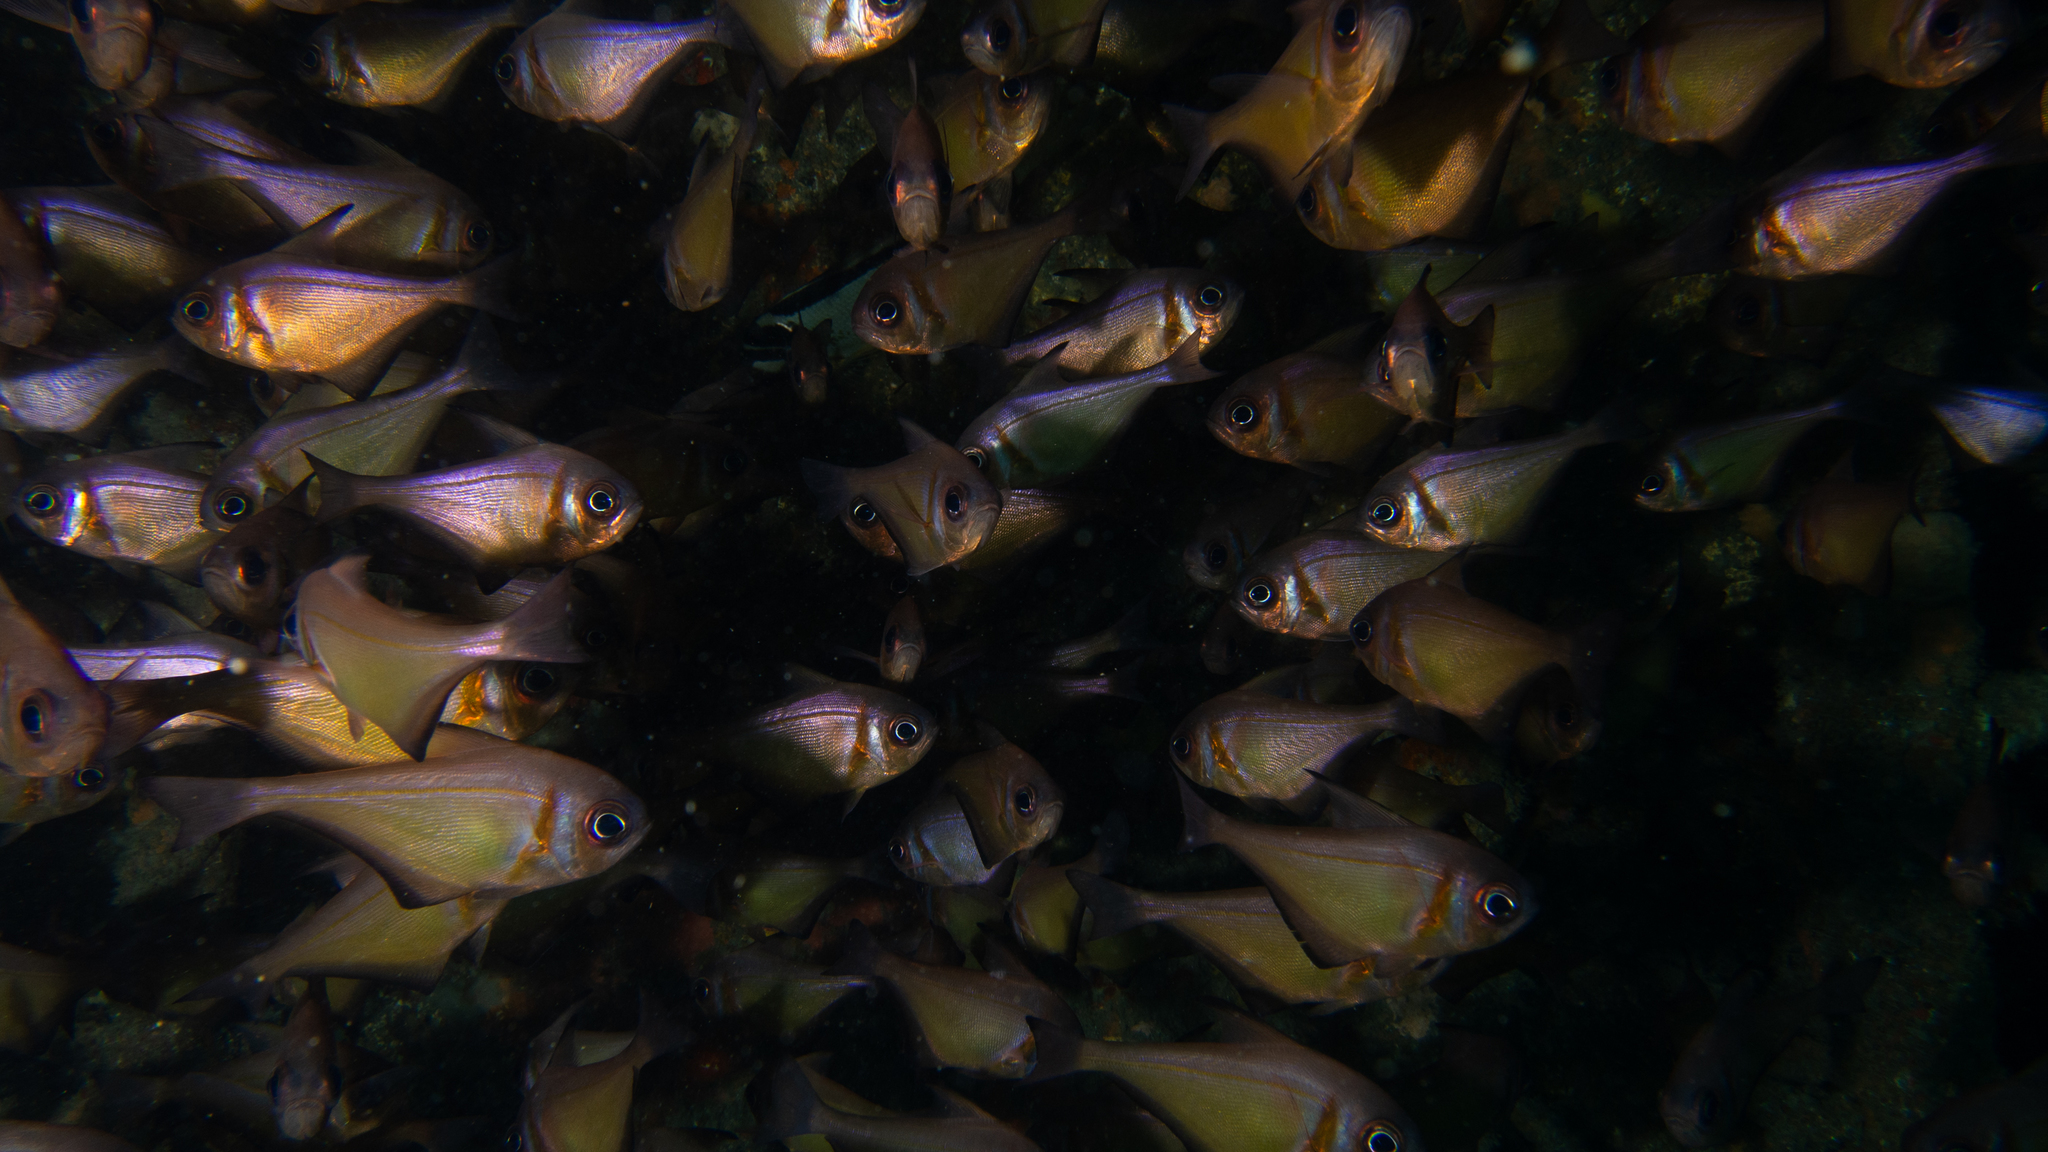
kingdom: Animalia
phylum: Chordata
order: Perciformes
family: Pempheridae
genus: Pempheris
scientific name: Pempheris klunzingeri
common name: Klunzinger's bullseye
